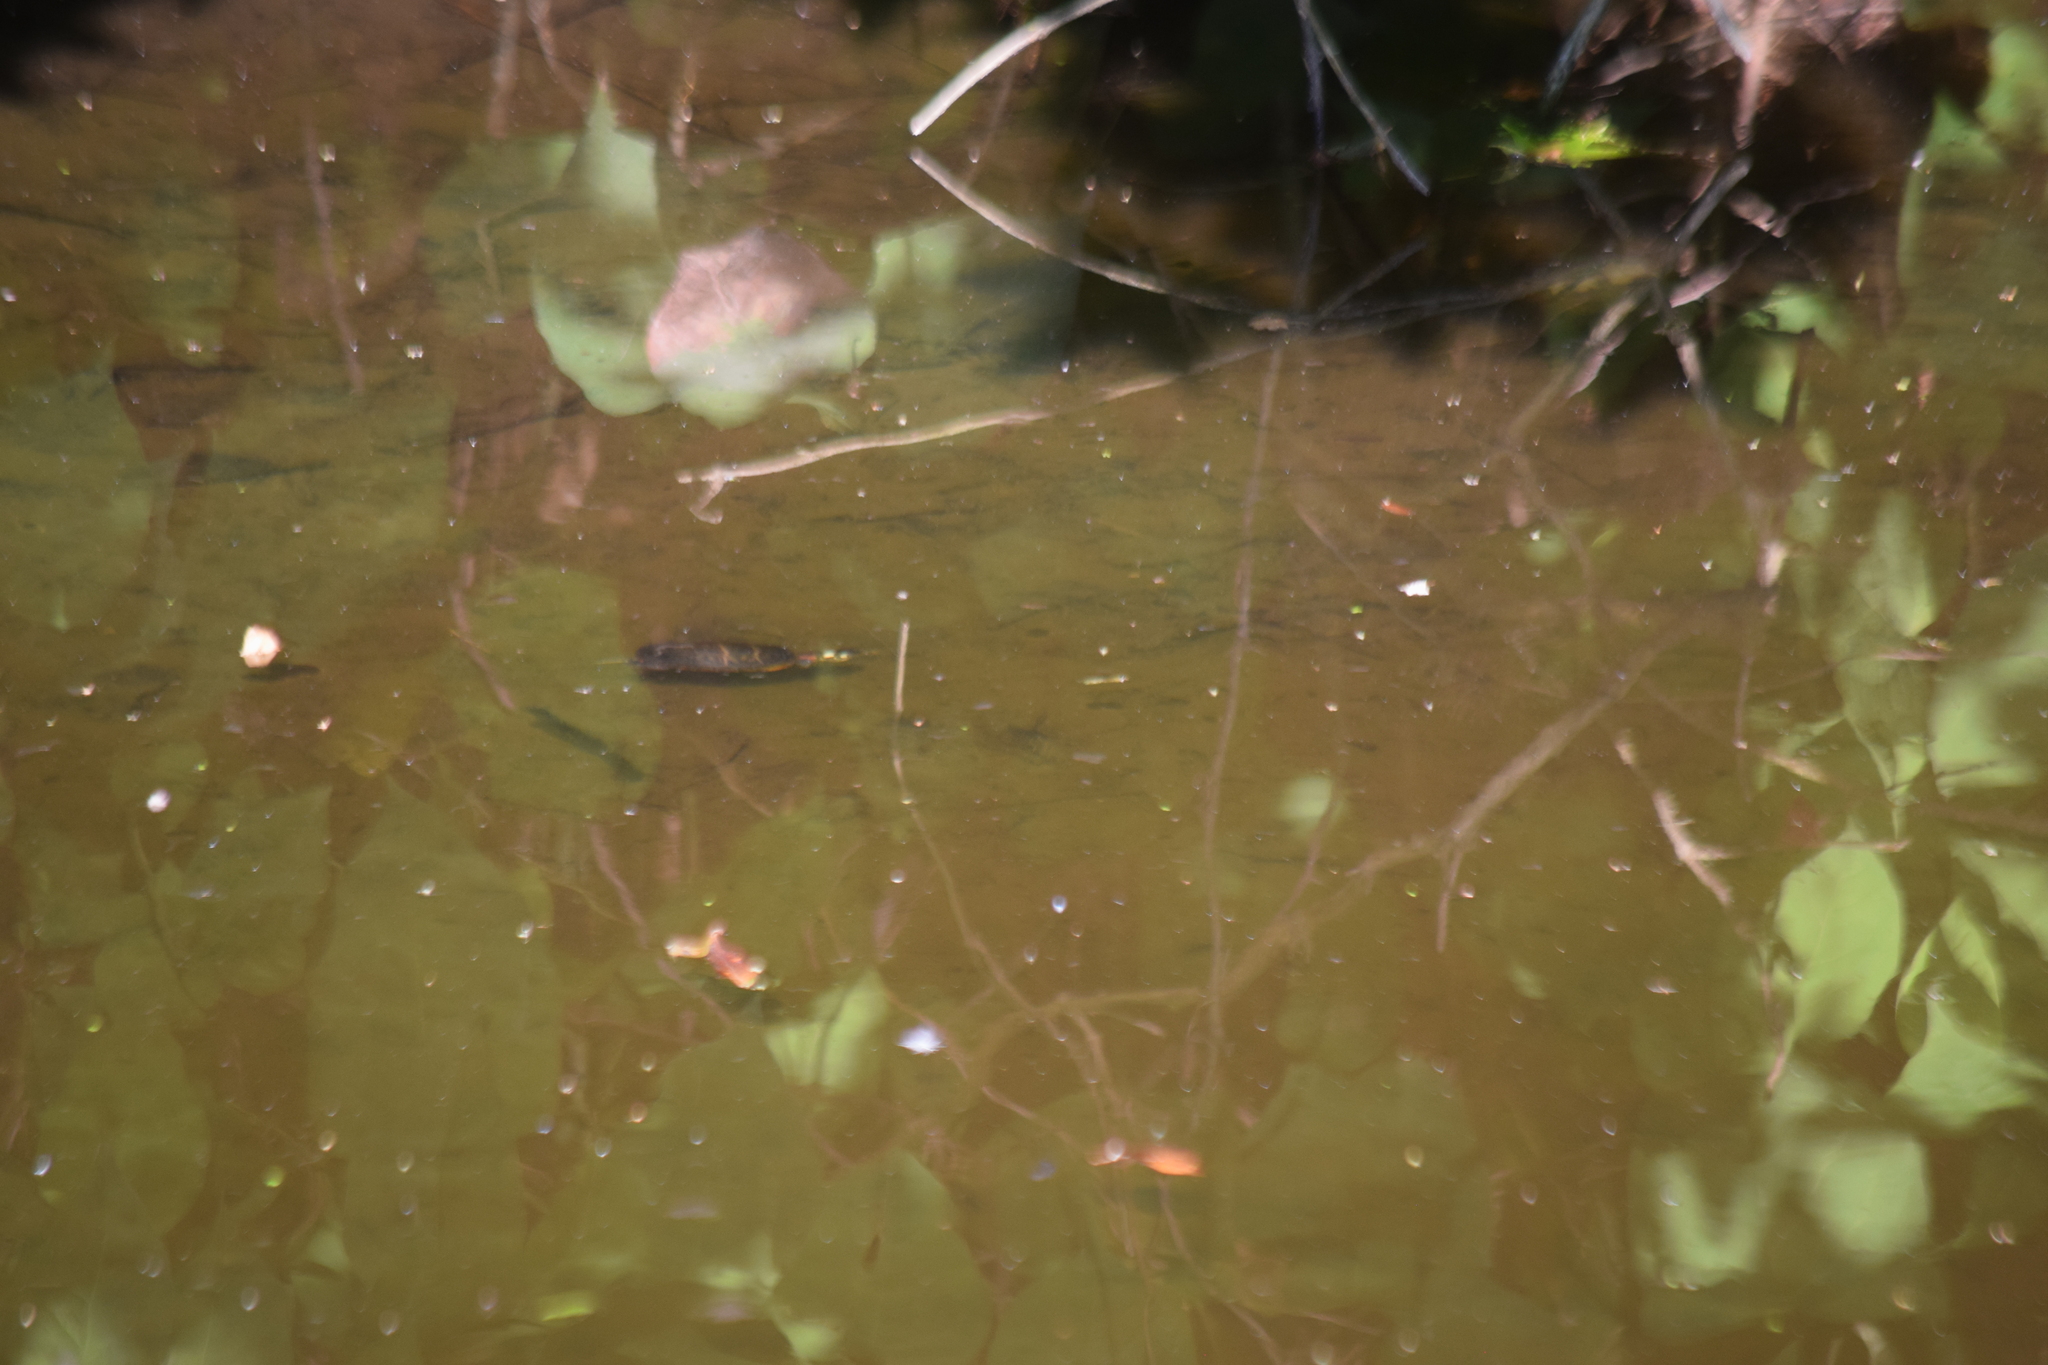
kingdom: Animalia
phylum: Chordata
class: Testudines
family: Emydidae
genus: Chrysemys
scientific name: Chrysemys picta
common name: Painted turtle
